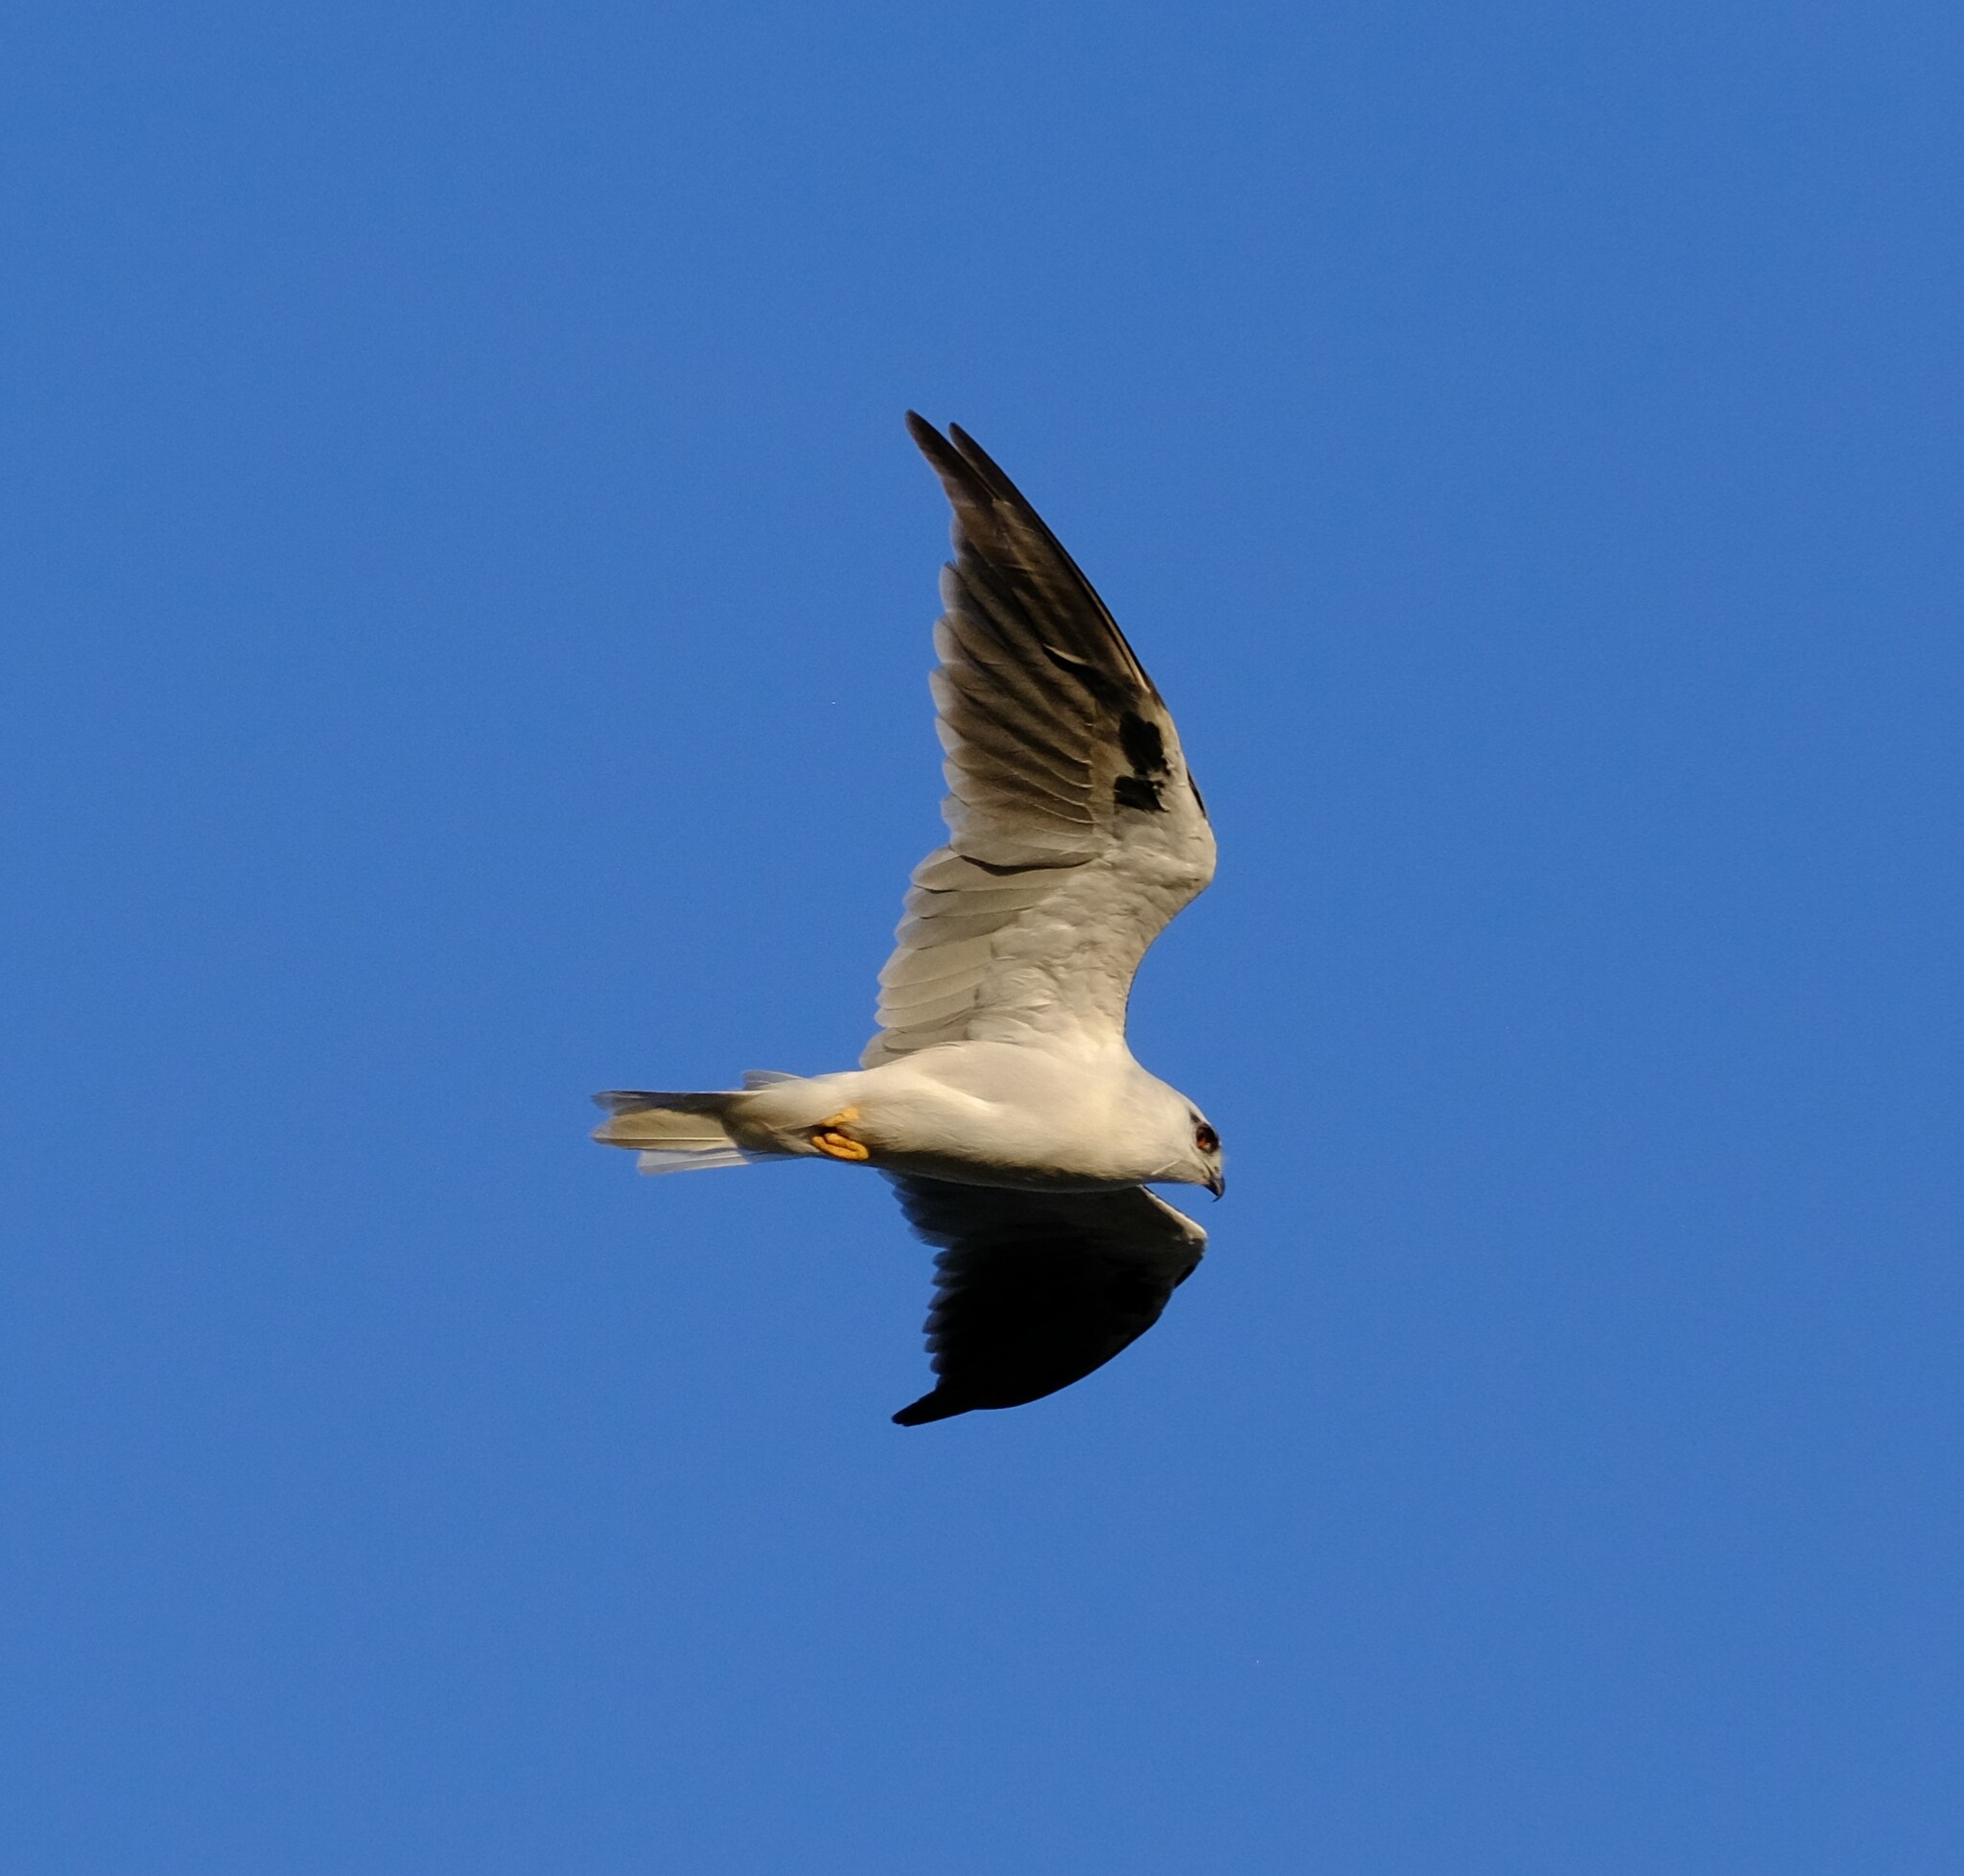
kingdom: Animalia
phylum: Chordata
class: Aves
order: Accipitriformes
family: Accipitridae
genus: Elanus
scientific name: Elanus axillaris
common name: Black-shouldered kite
